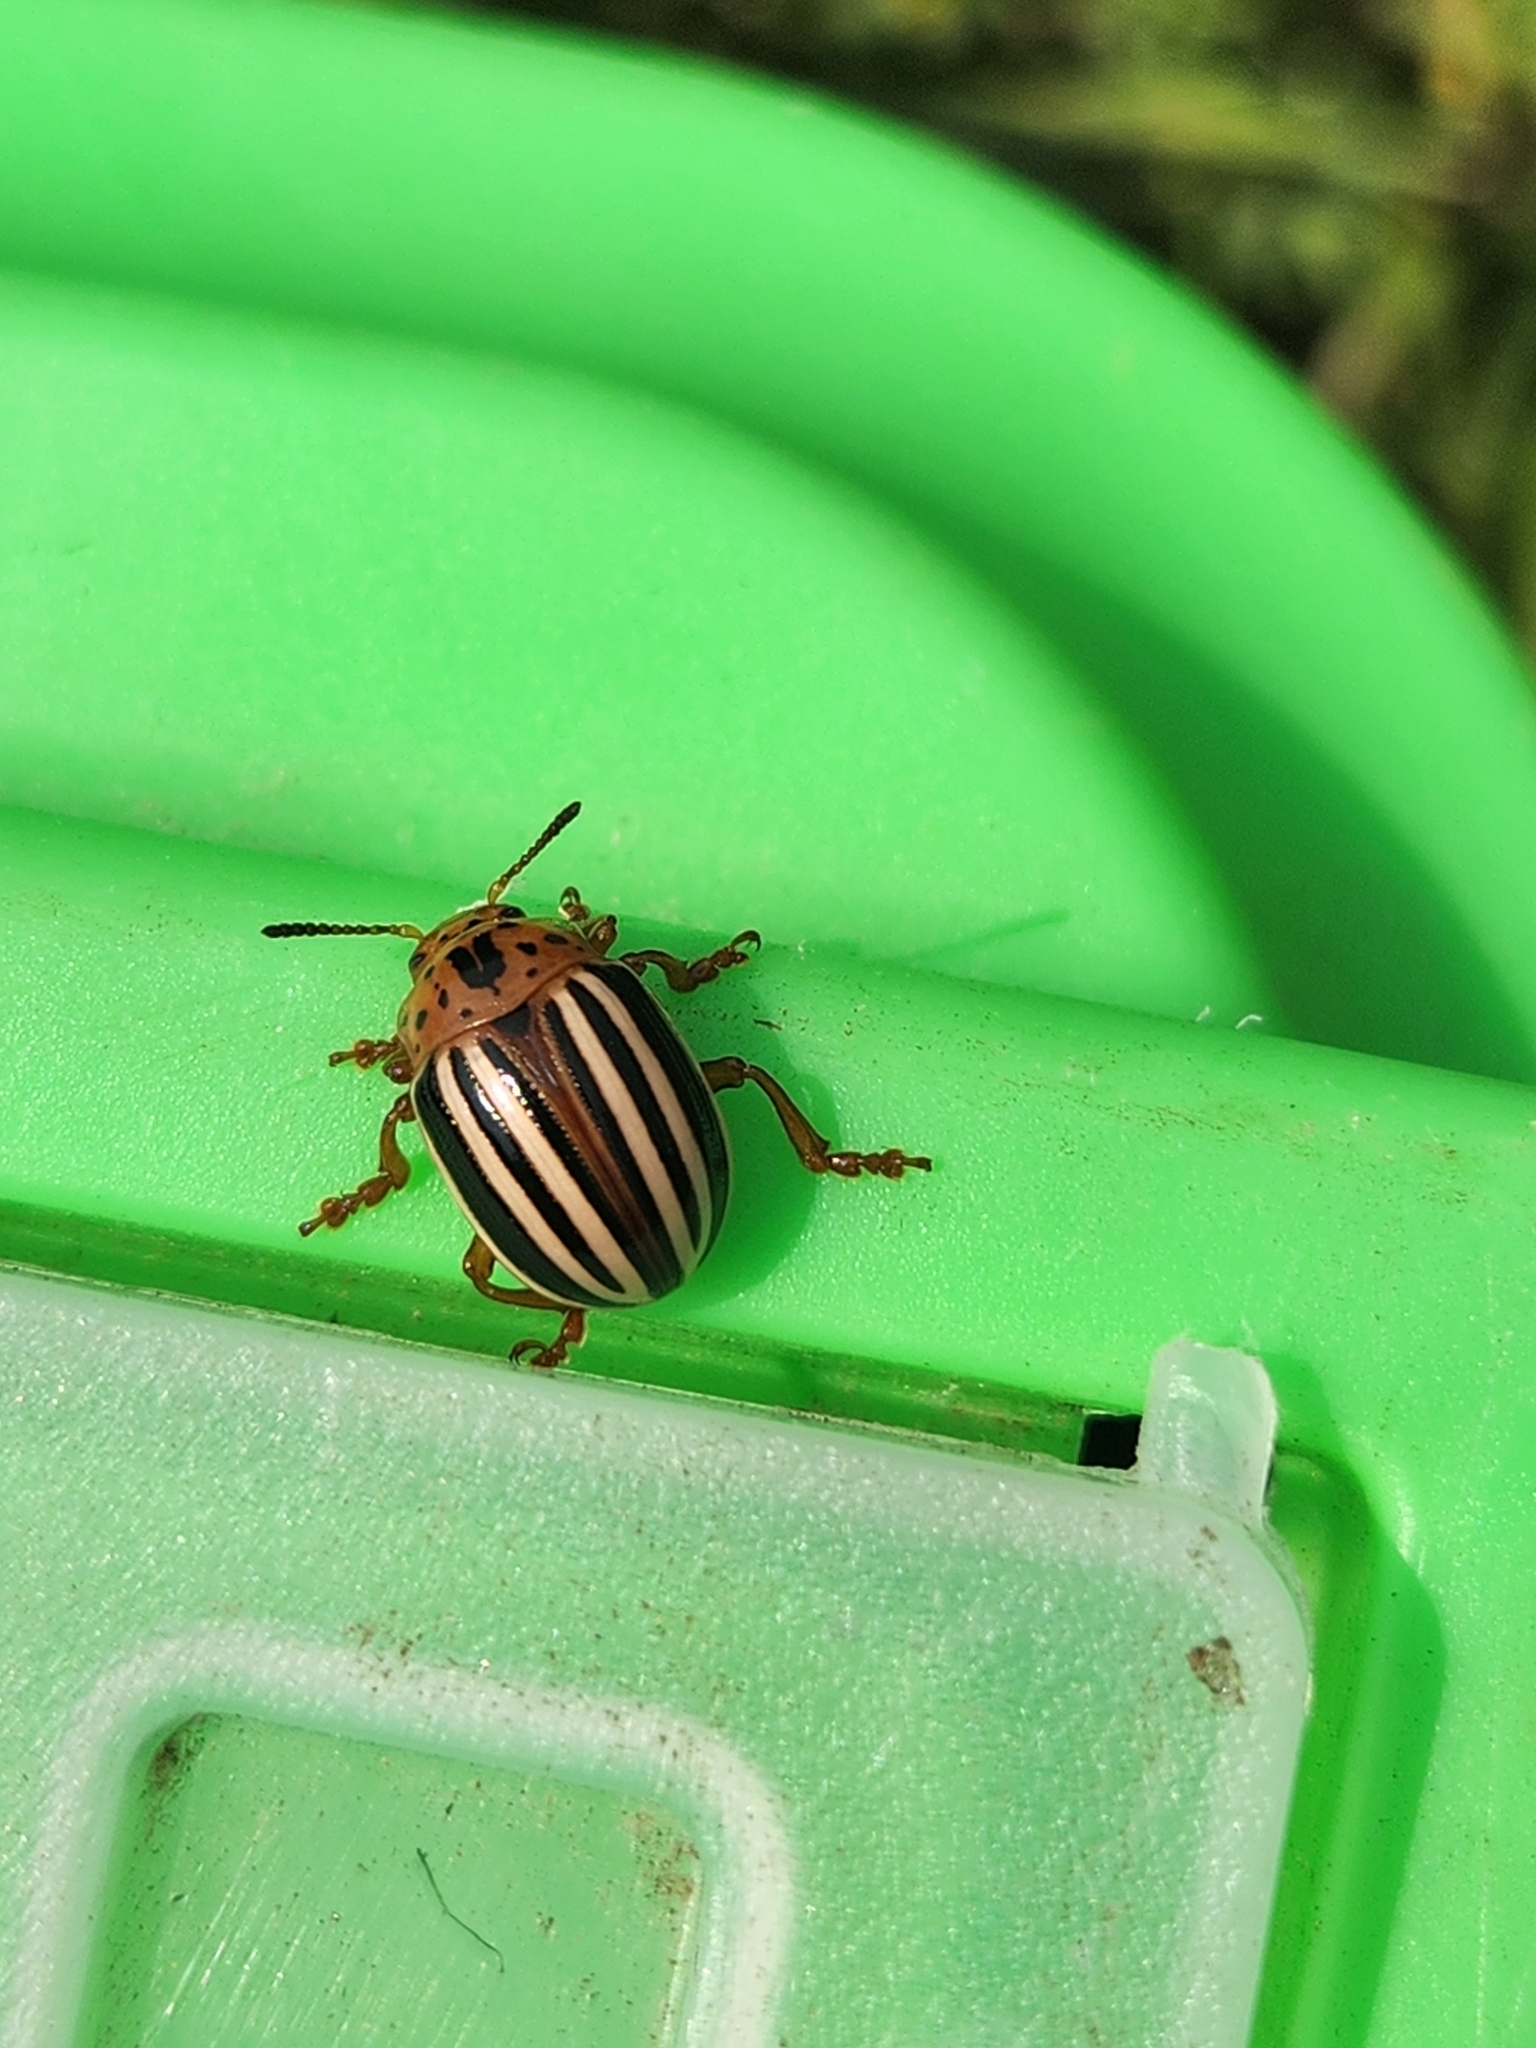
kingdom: Animalia
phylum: Arthropoda
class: Insecta
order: Coleoptera
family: Chrysomelidae
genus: Leptinotarsa
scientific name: Leptinotarsa juncta
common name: False potato beetle
